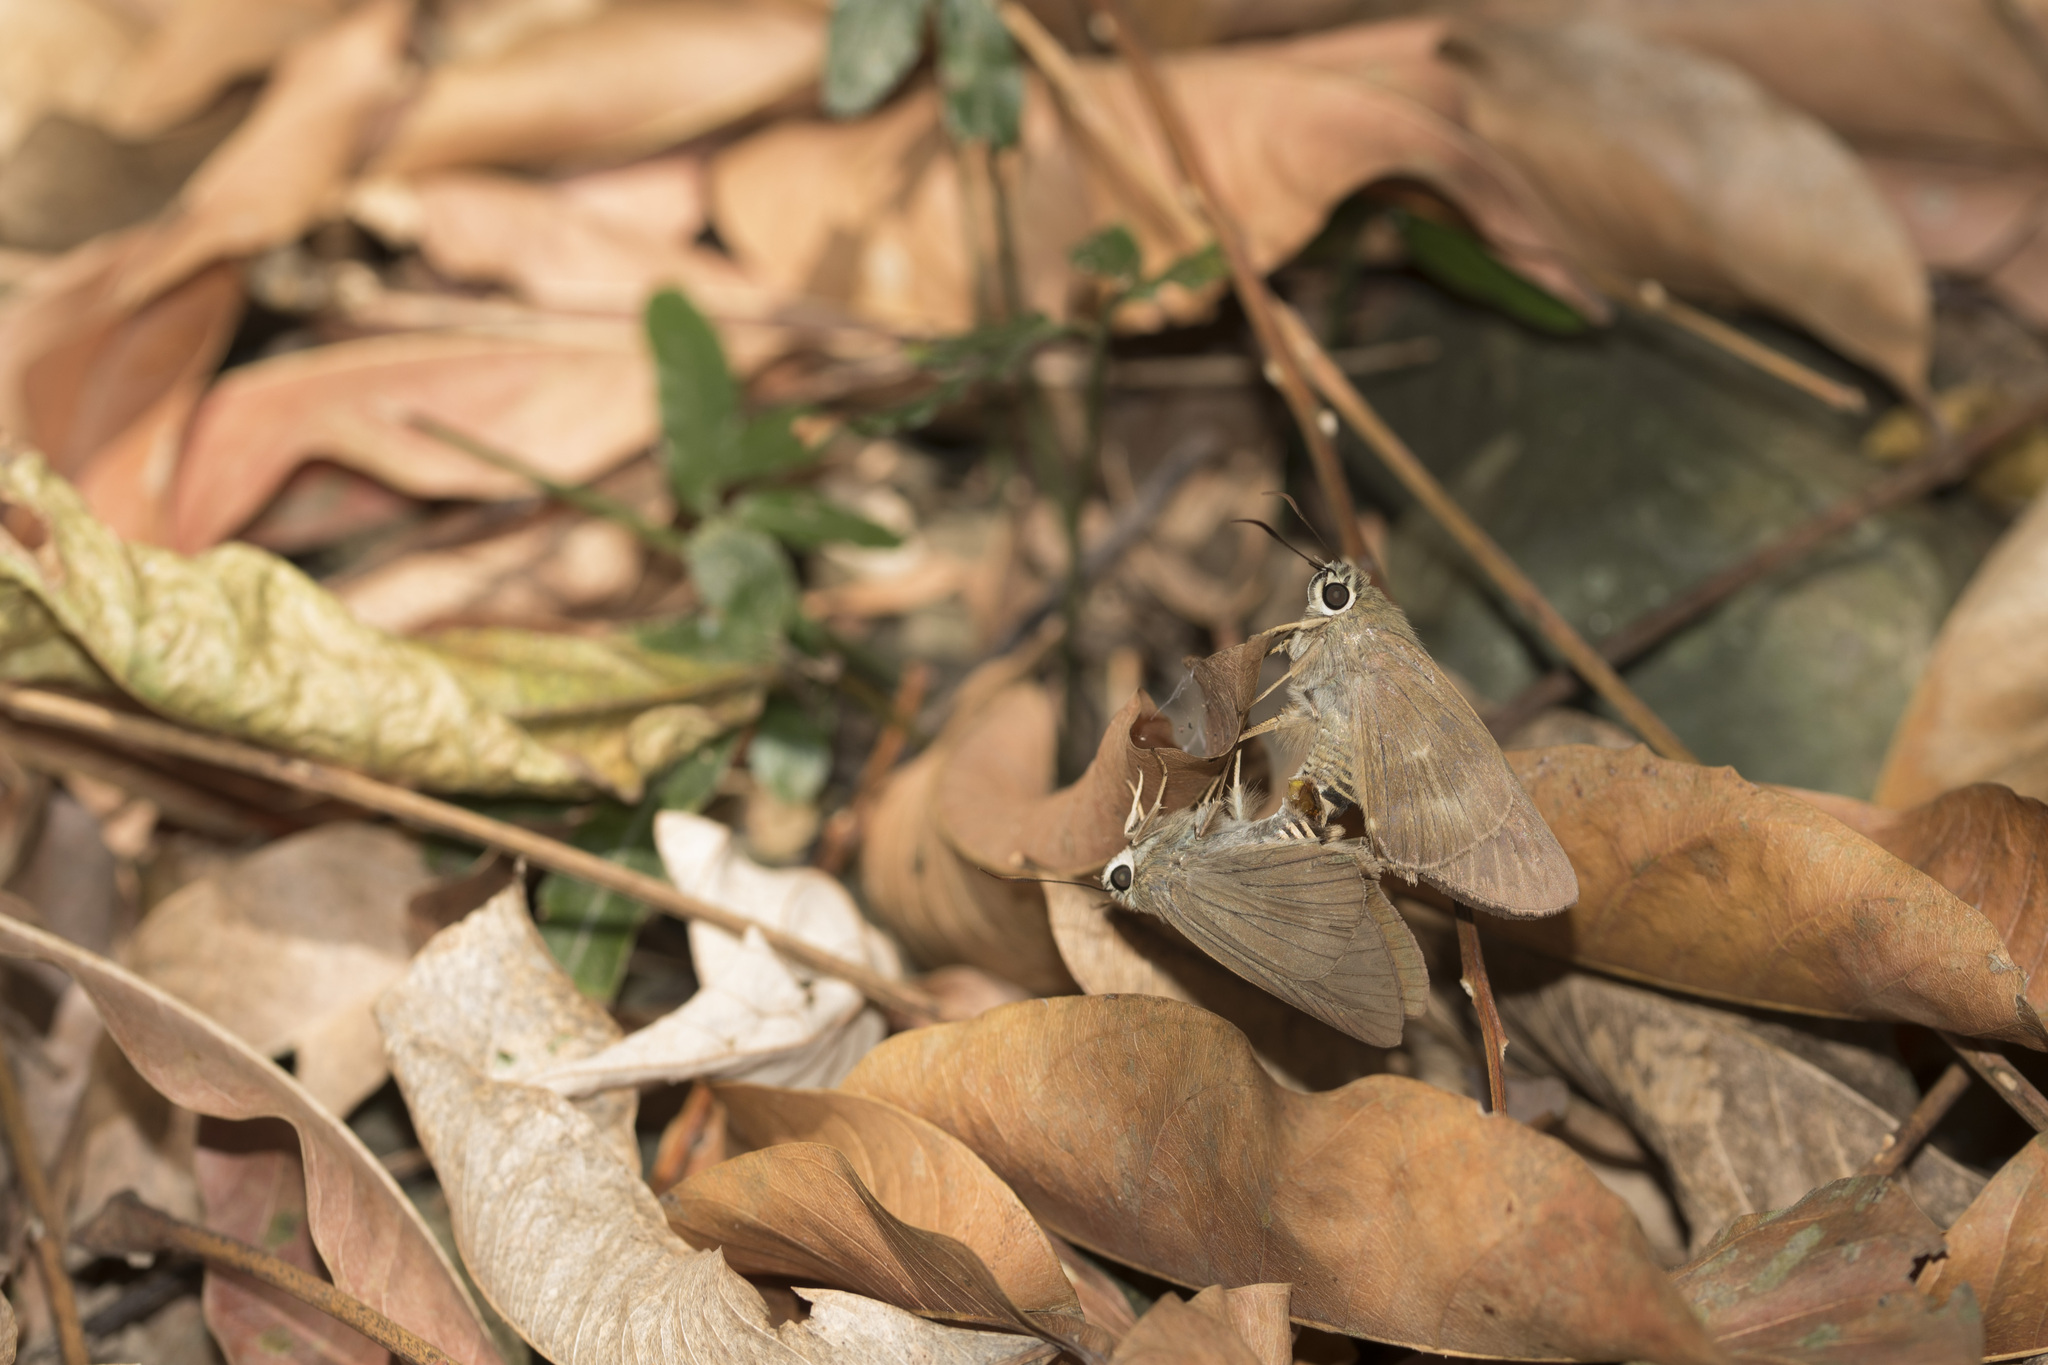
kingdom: Animalia
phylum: Arthropoda
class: Insecta
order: Lepidoptera
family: Hesperiidae
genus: Badamia
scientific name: Badamia exclamationis
